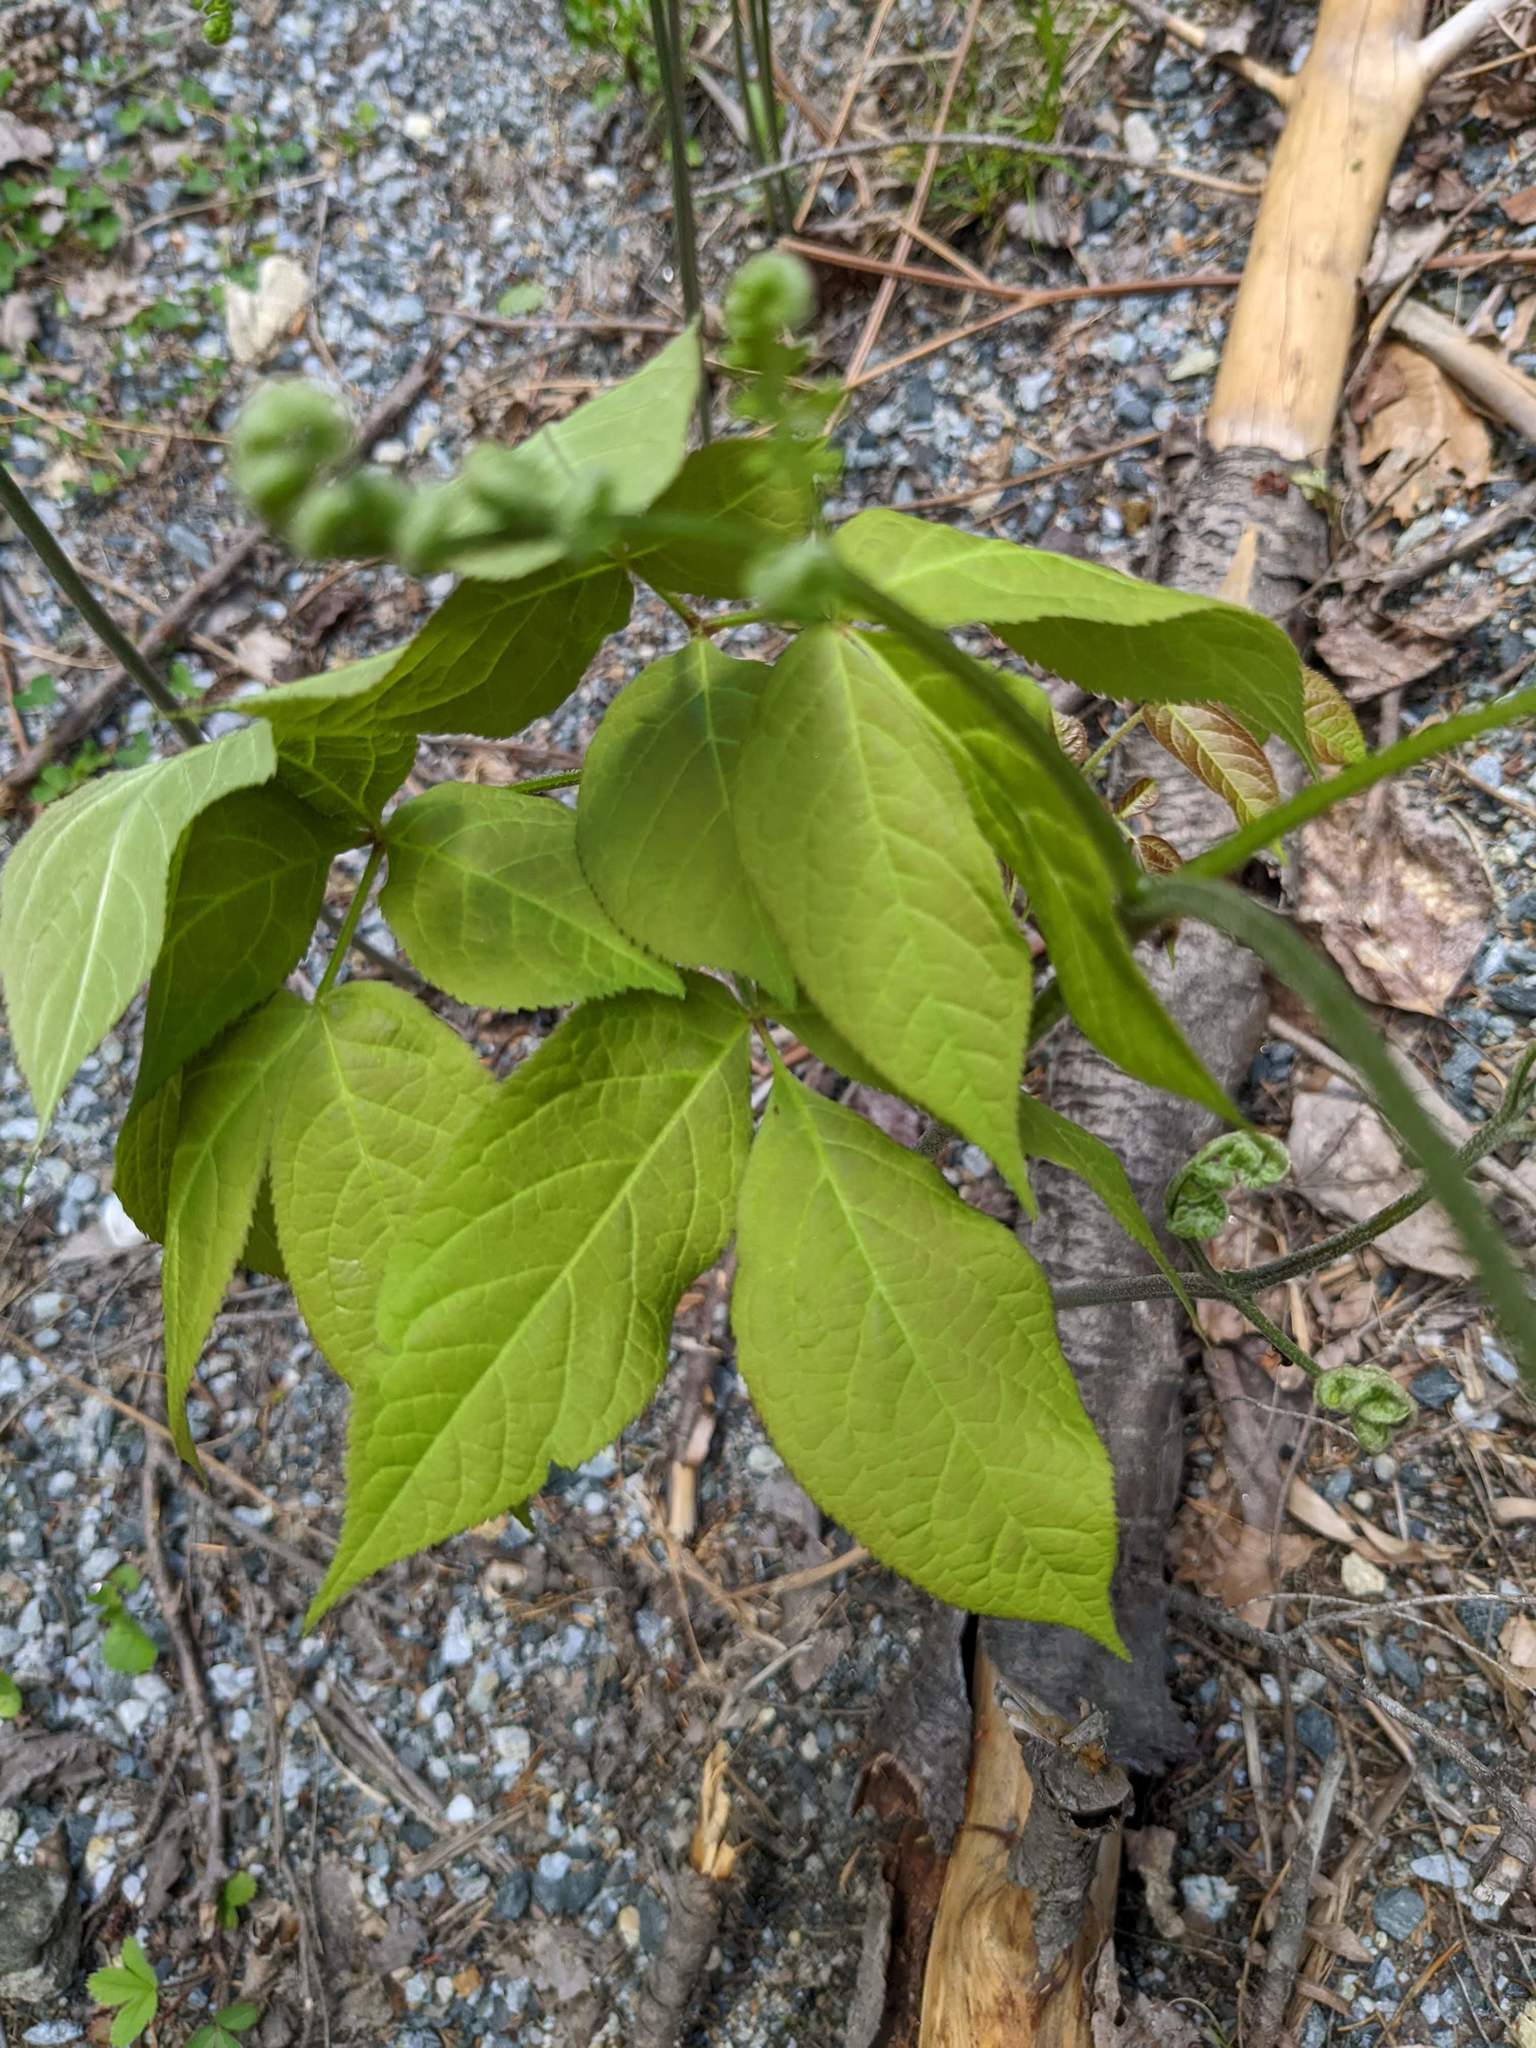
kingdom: Plantae
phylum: Tracheophyta
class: Magnoliopsida
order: Apiales
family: Araliaceae
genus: Aralia
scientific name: Aralia nudicaulis
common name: Wild sarsaparilla
